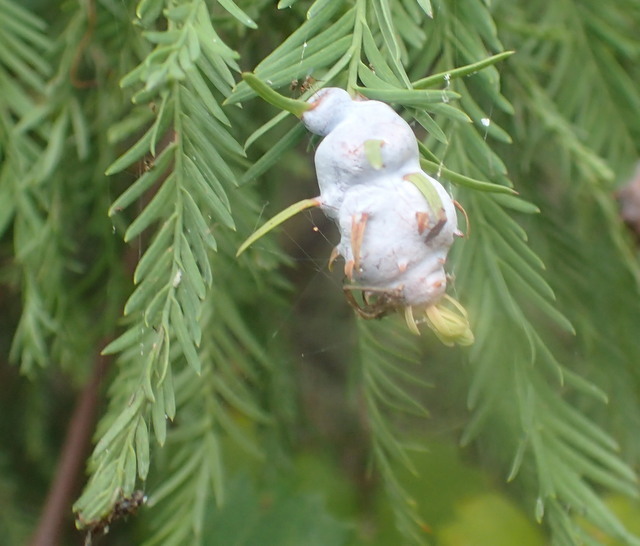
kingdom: Animalia
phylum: Arthropoda
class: Insecta
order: Diptera
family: Cecidomyiidae
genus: Taxodiomyia
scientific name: Taxodiomyia cupressiananassa
